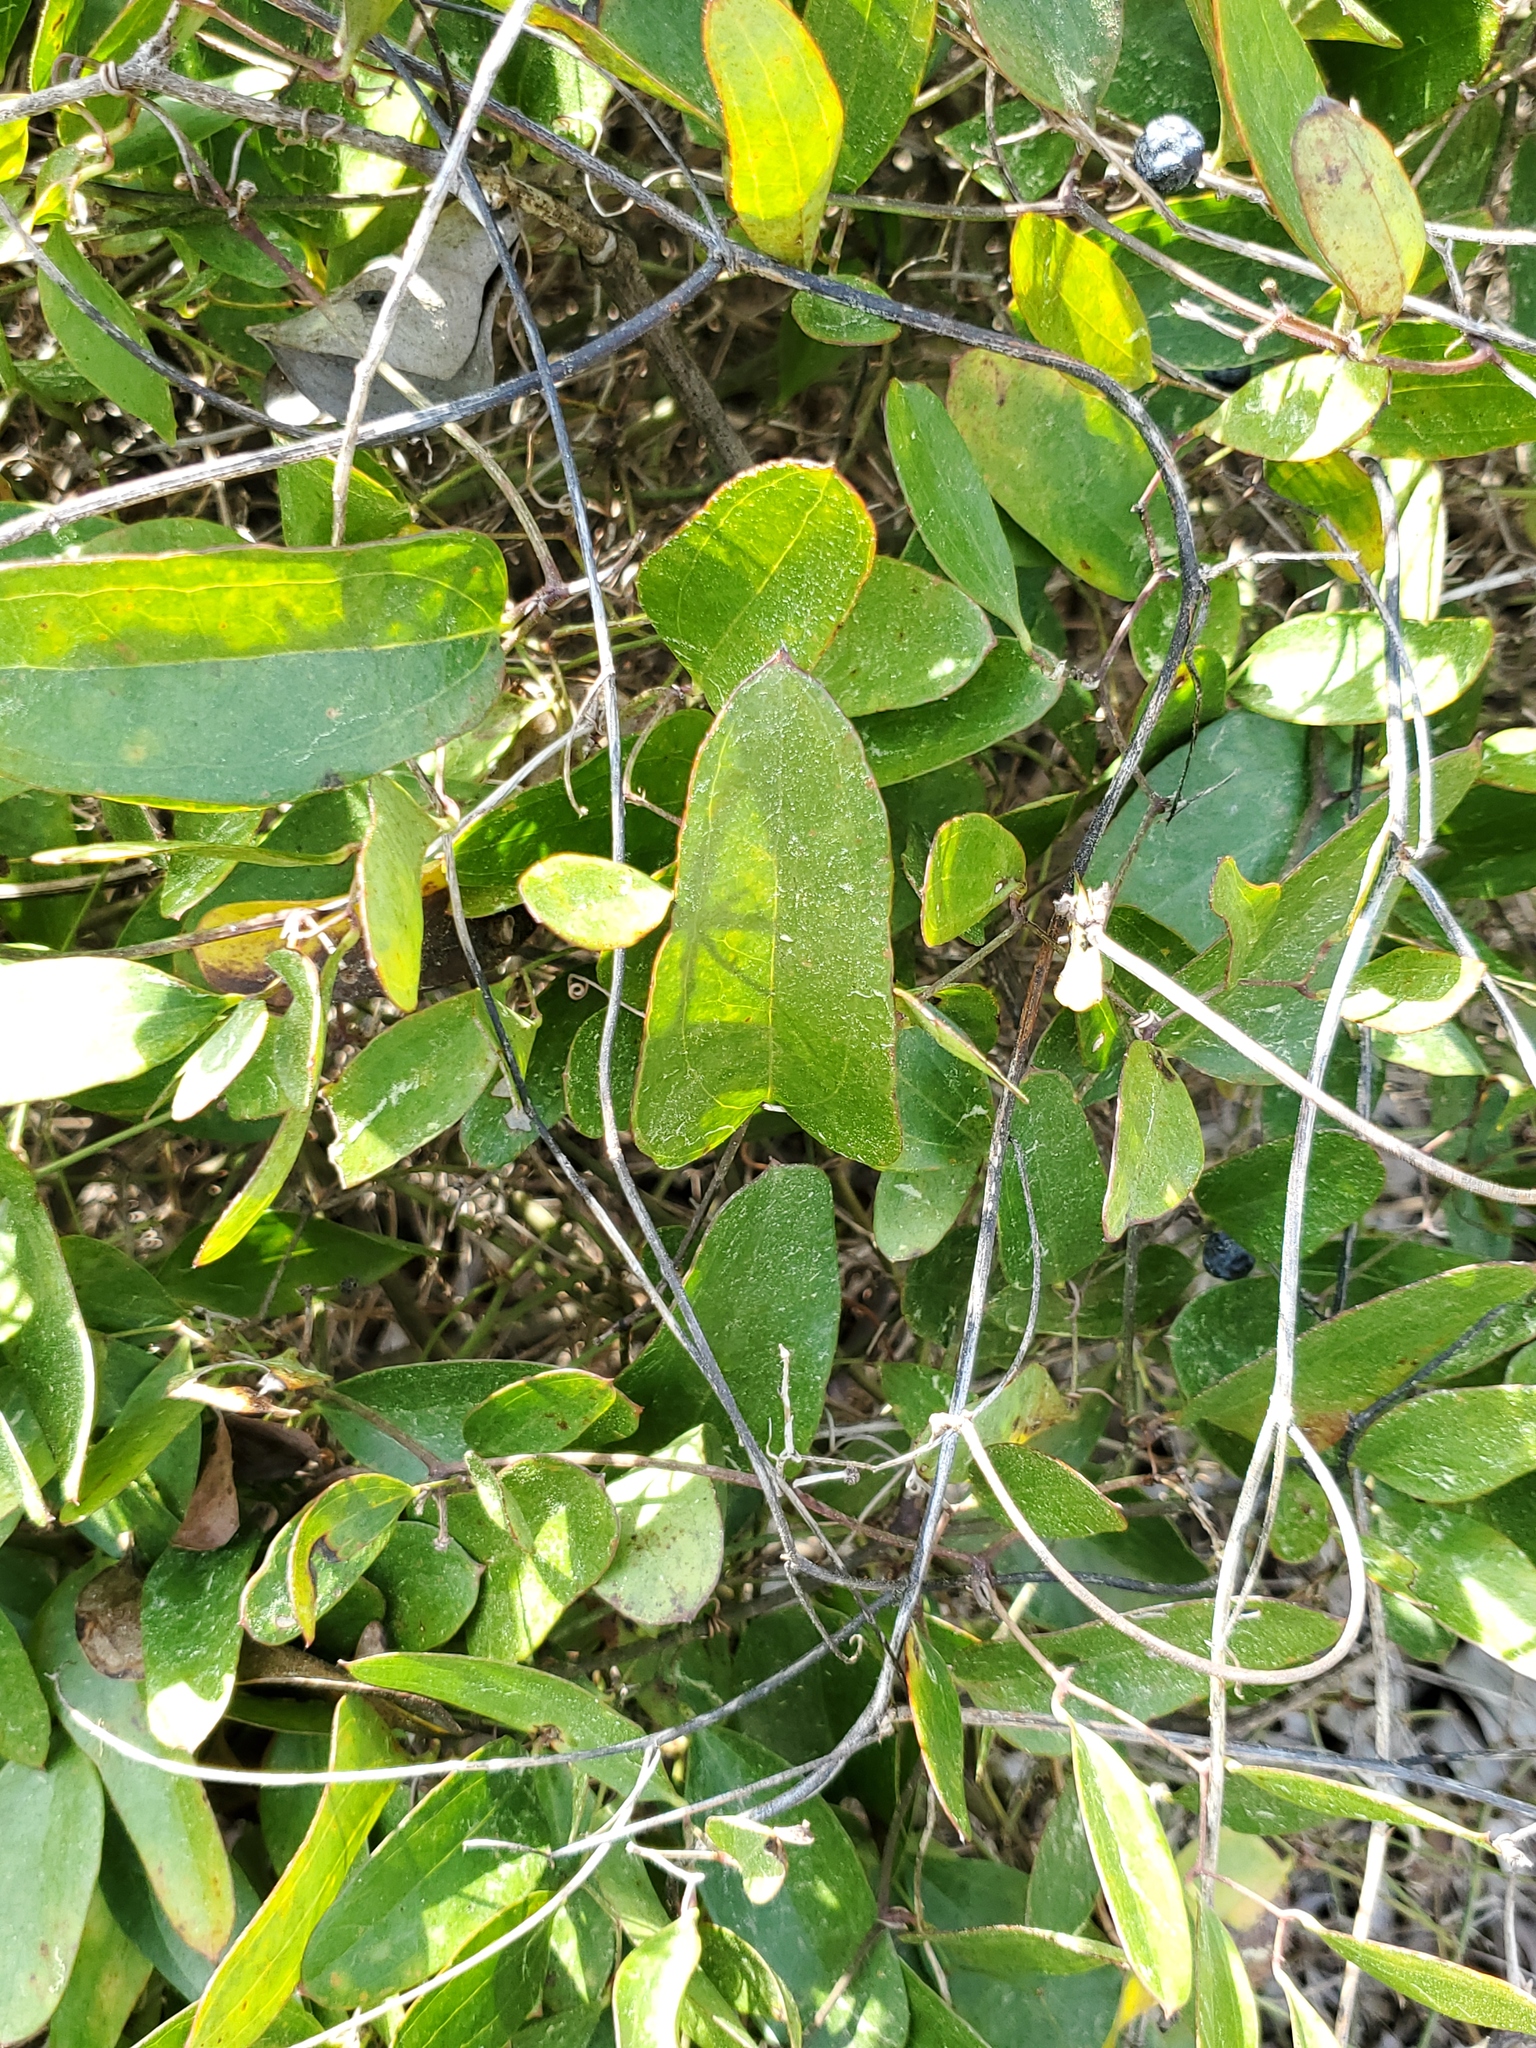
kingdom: Plantae
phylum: Tracheophyta
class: Liliopsida
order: Liliales
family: Smilacaceae
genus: Smilax
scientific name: Smilax auriculata
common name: Wild bamboo
